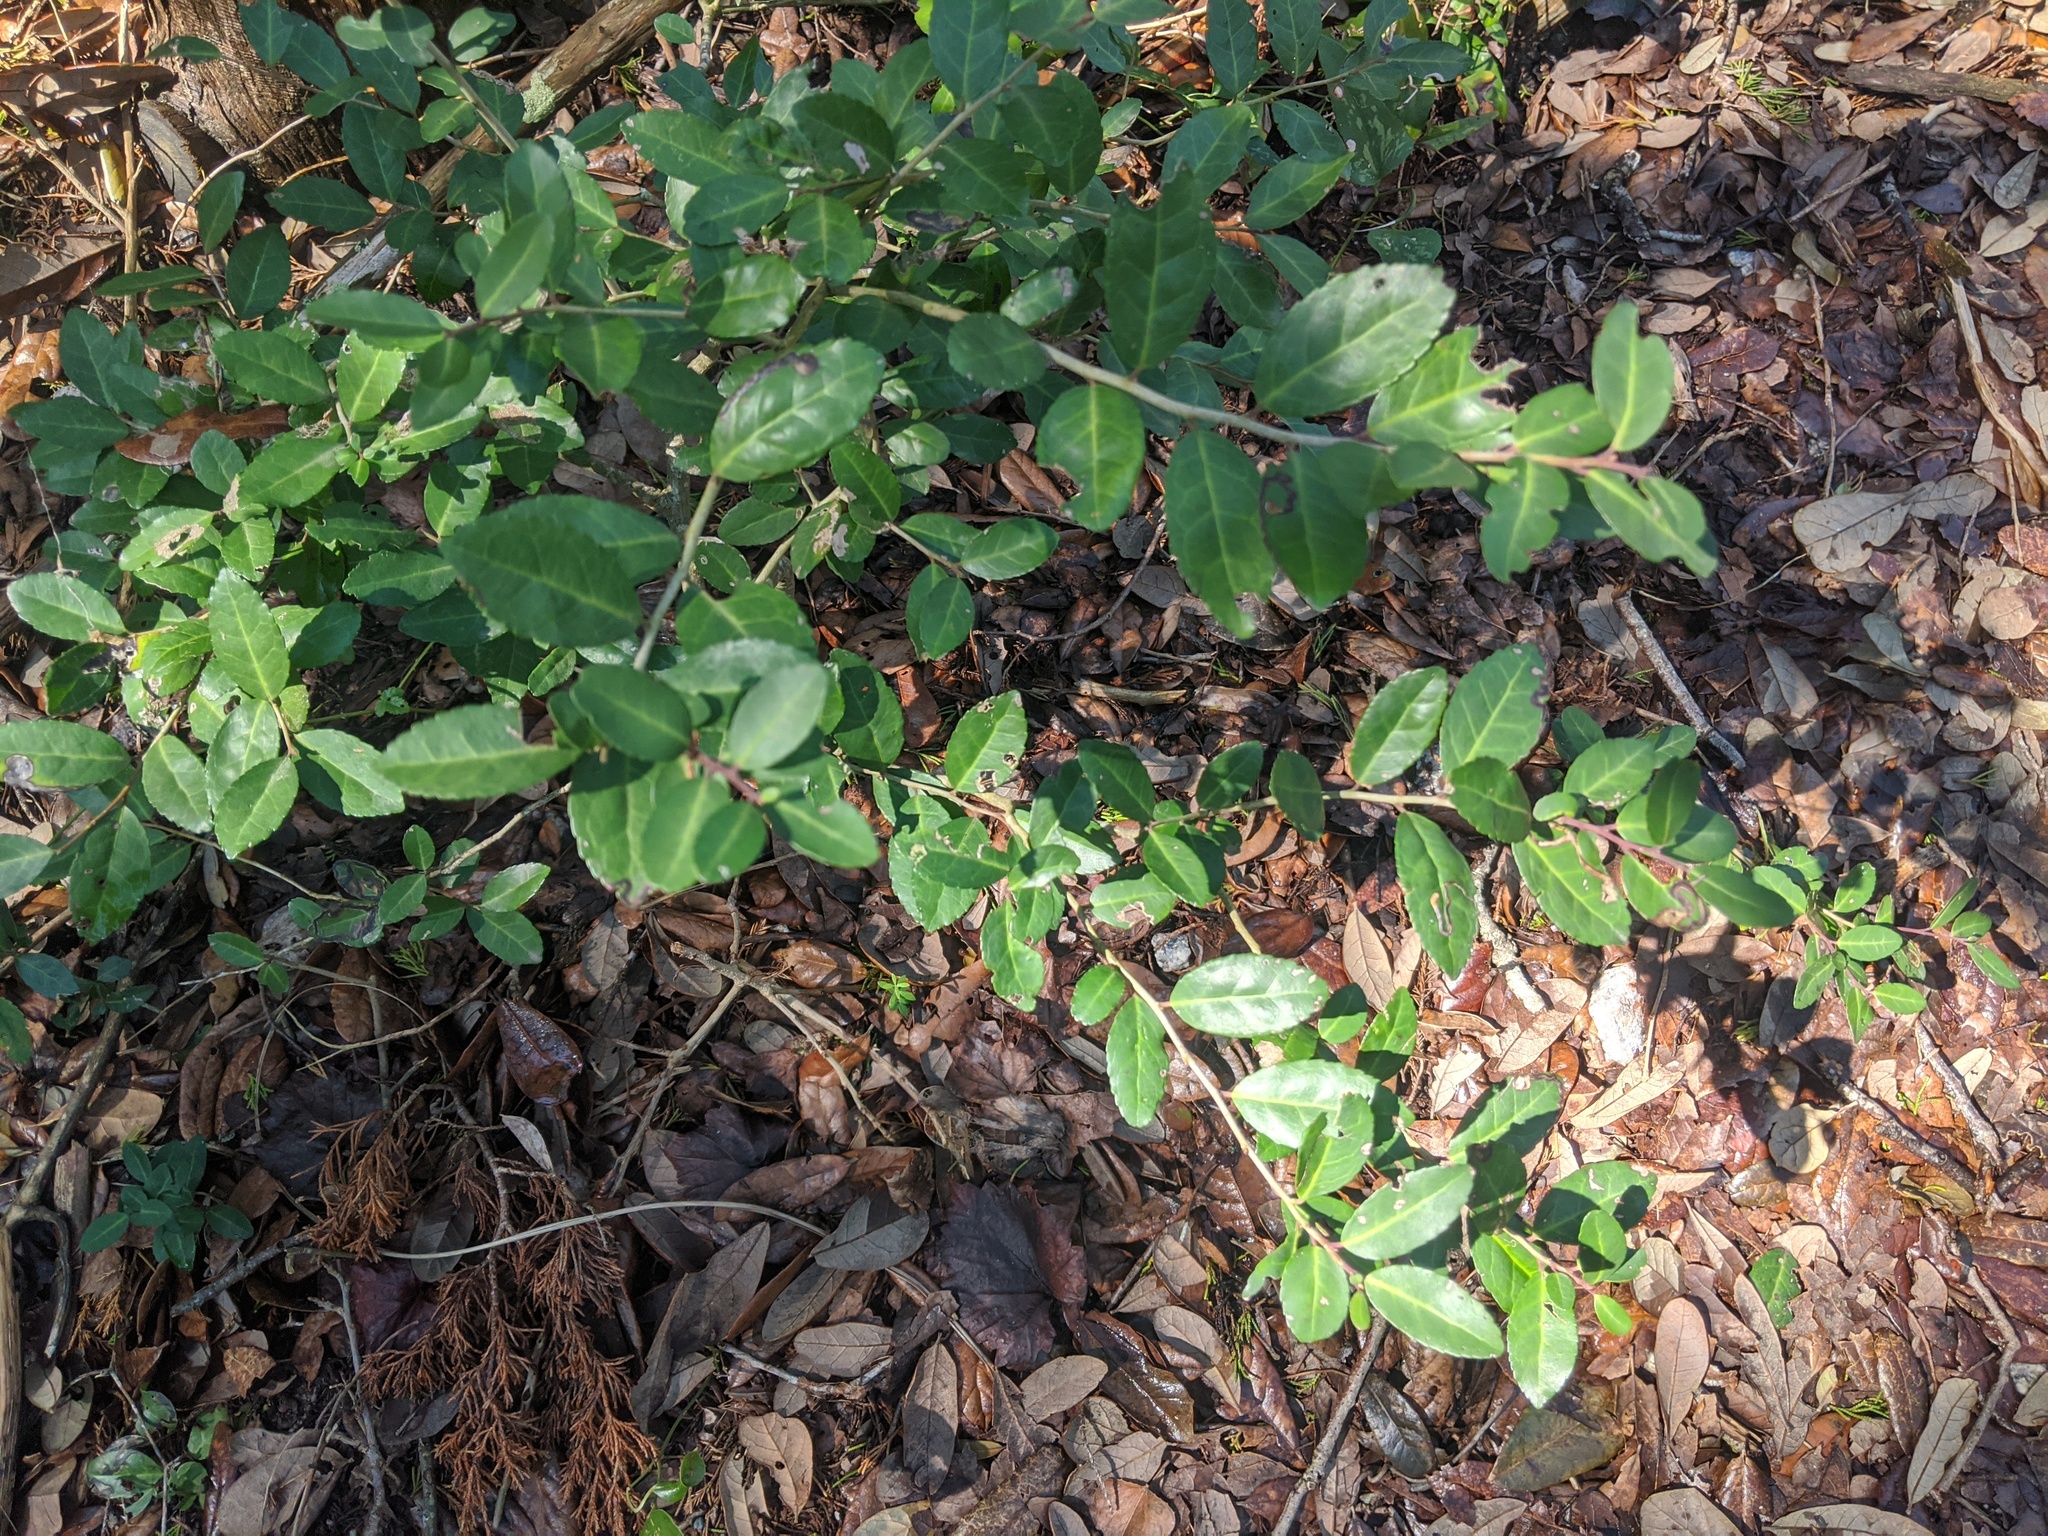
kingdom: Plantae
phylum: Tracheophyta
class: Magnoliopsida
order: Aquifoliales
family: Aquifoliaceae
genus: Ilex
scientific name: Ilex vomitoria
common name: Yaupon holly
